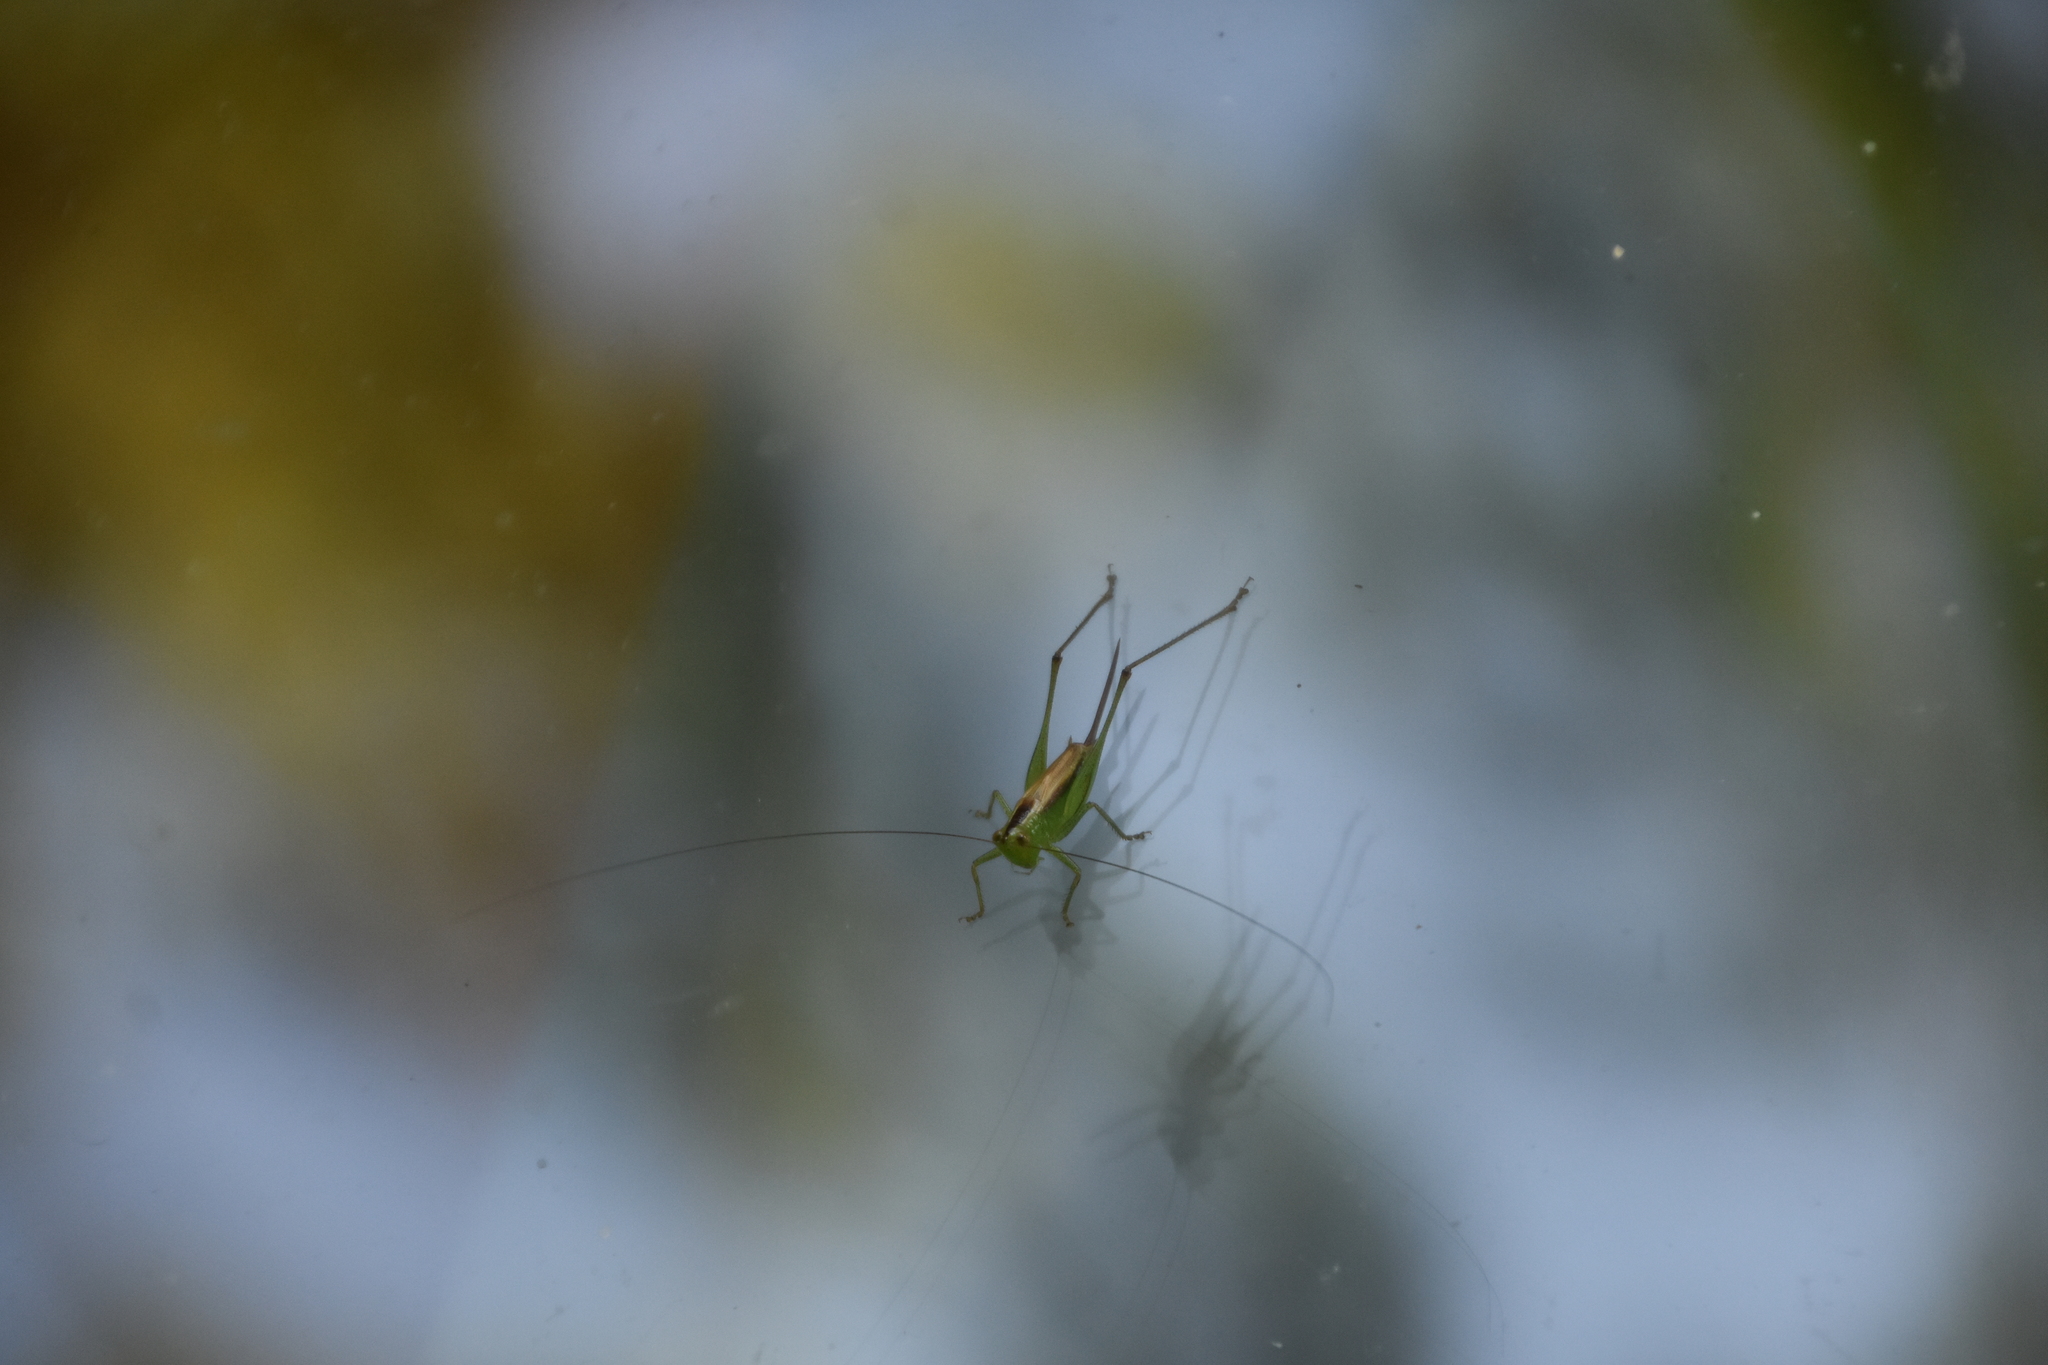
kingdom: Animalia
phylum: Arthropoda
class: Insecta
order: Orthoptera
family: Tettigoniidae
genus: Conocephalus
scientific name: Conocephalus brevipennis
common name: Short-winged meadow katydid
